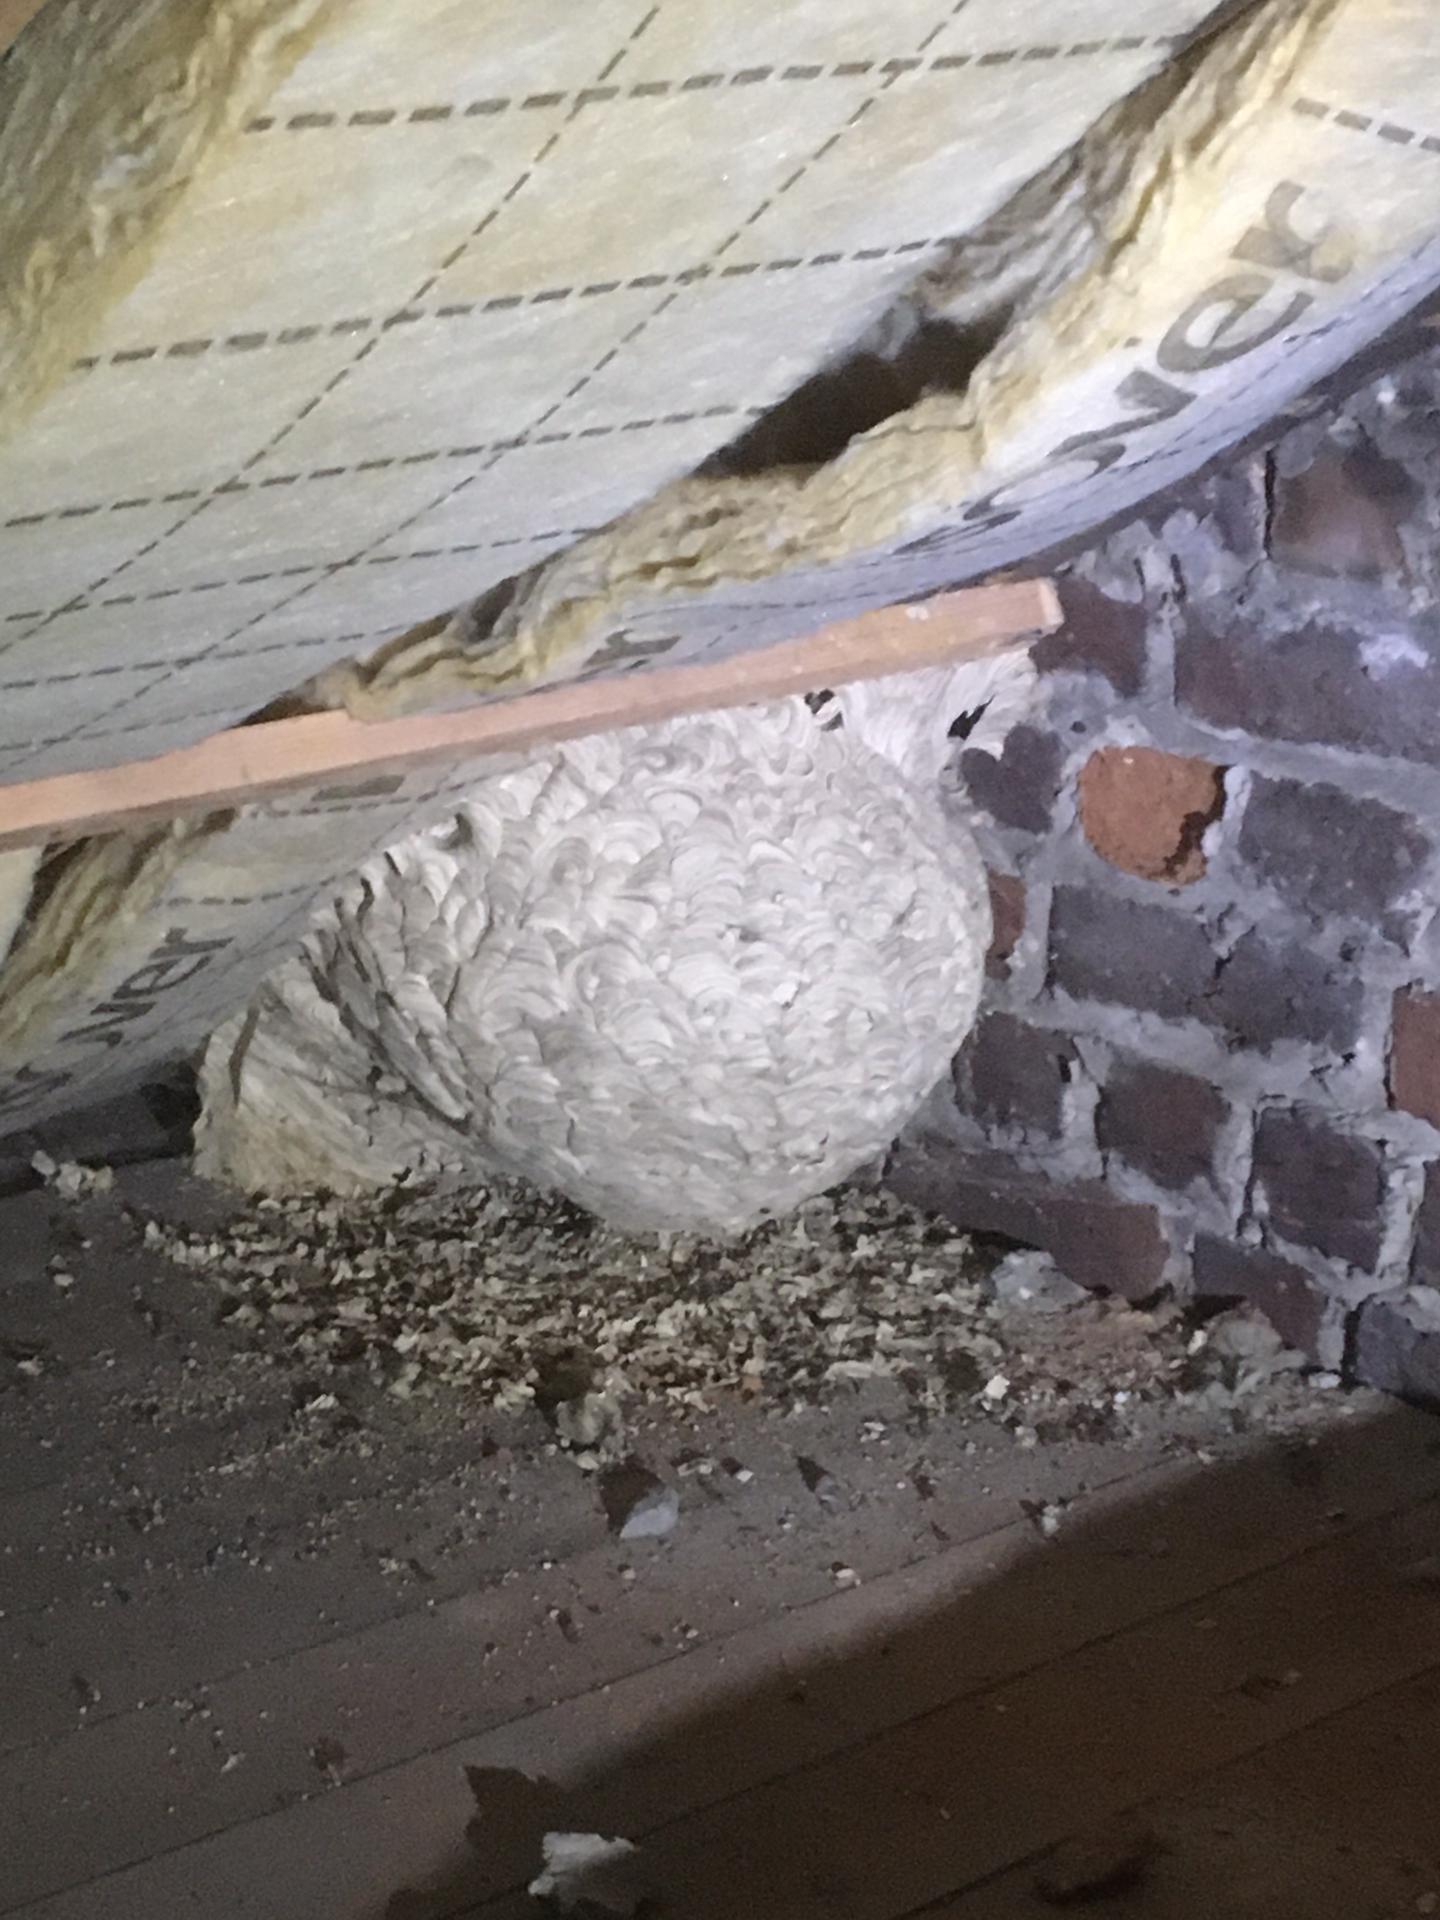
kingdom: Animalia
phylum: Arthropoda
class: Insecta
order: Hymenoptera
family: Vespidae
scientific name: Vespidae
